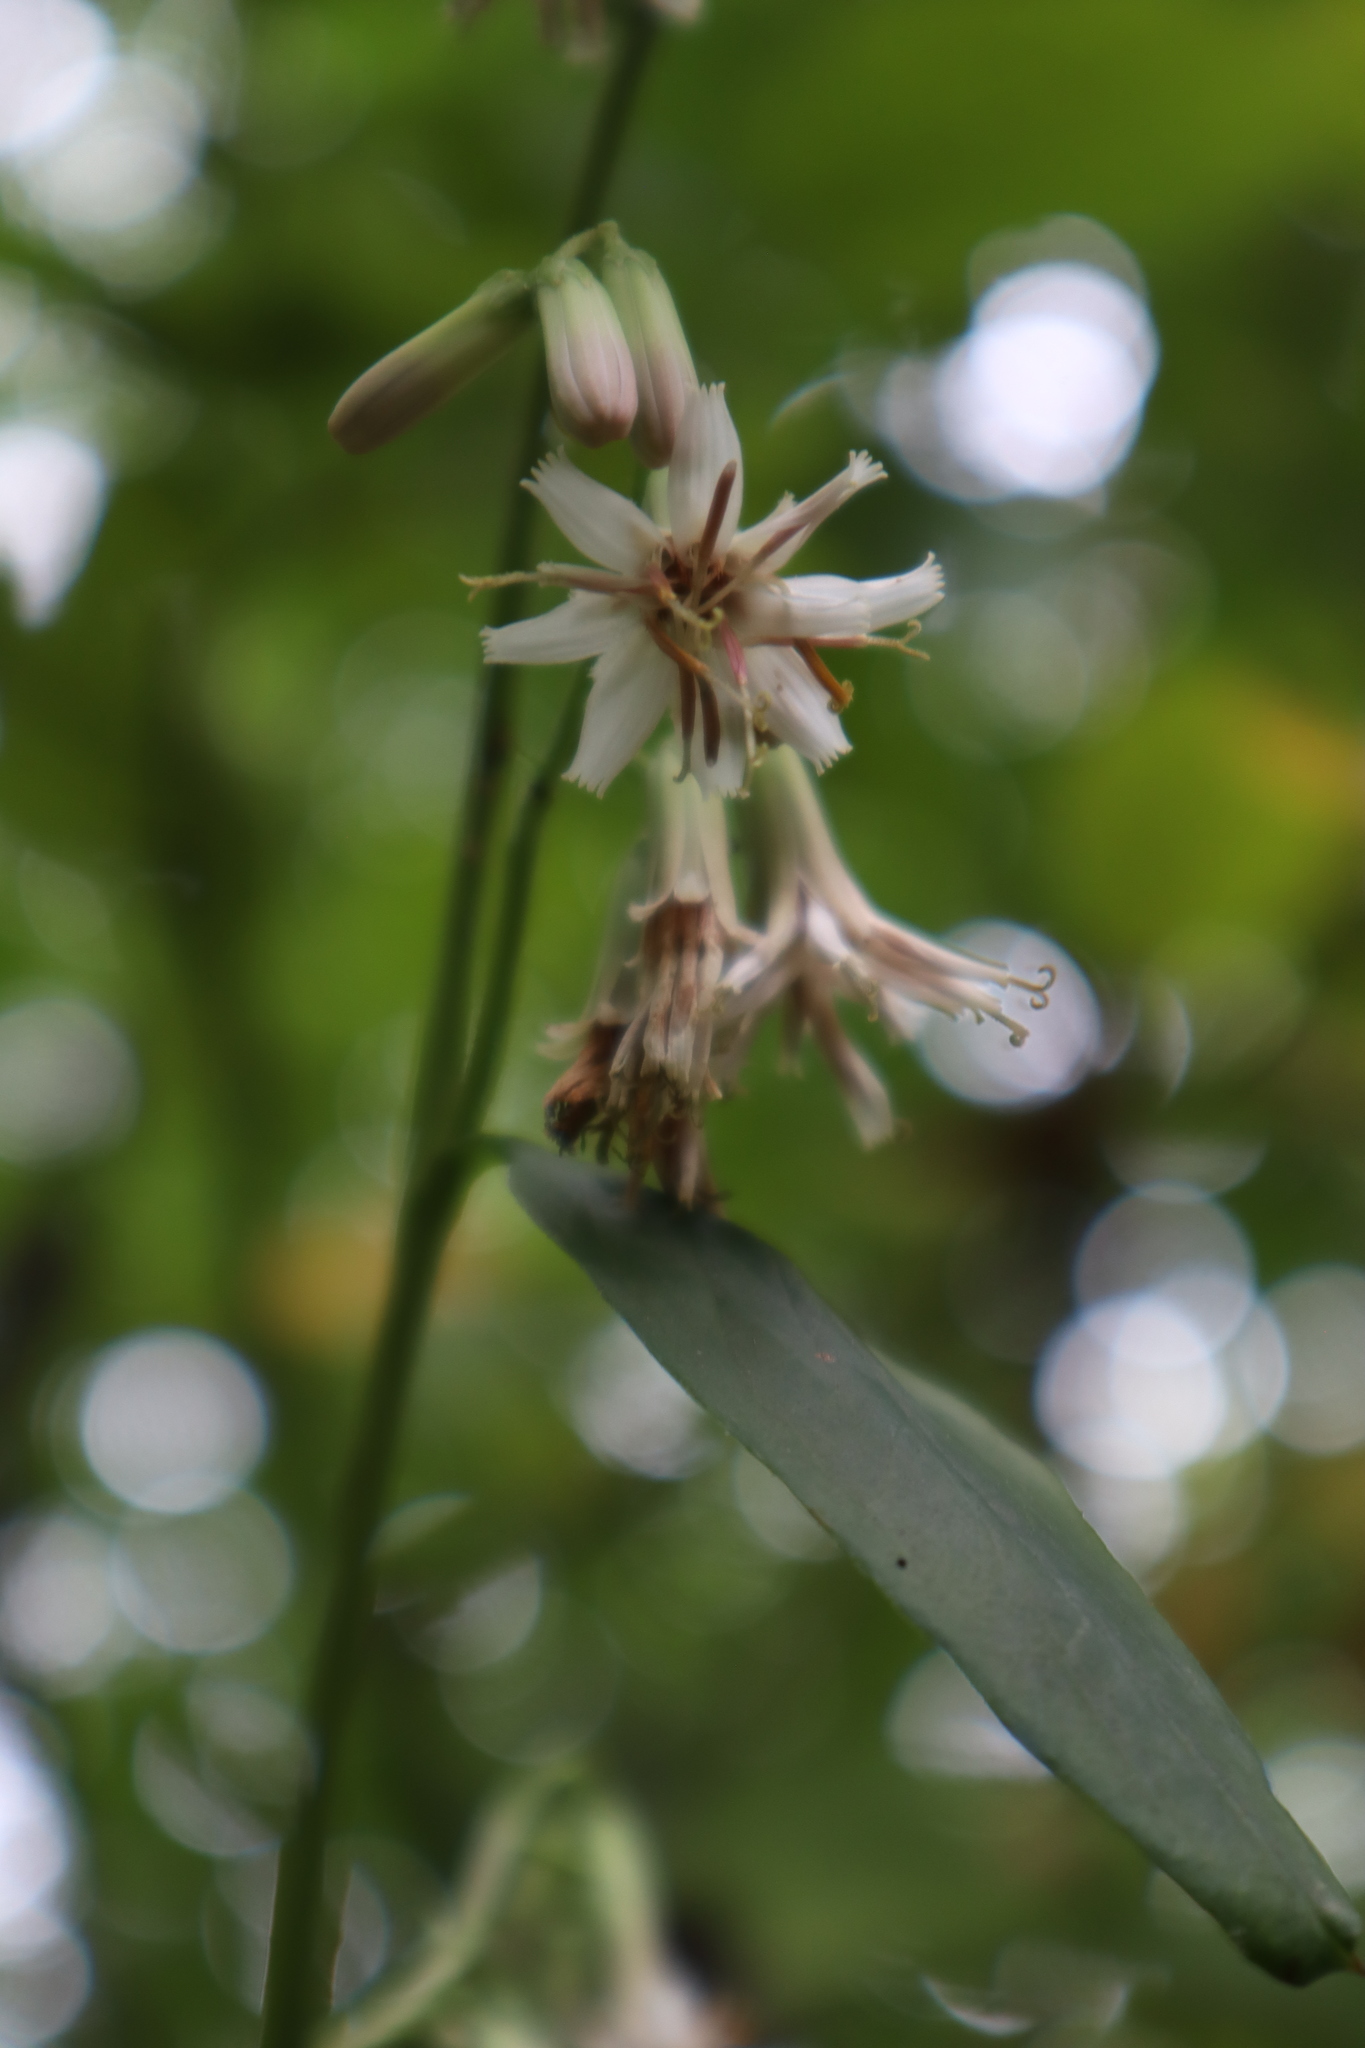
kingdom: Plantae
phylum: Tracheophyta
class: Magnoliopsida
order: Asterales
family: Asteraceae
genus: Nabalus
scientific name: Nabalus albus
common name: White rattlesnakeroot
